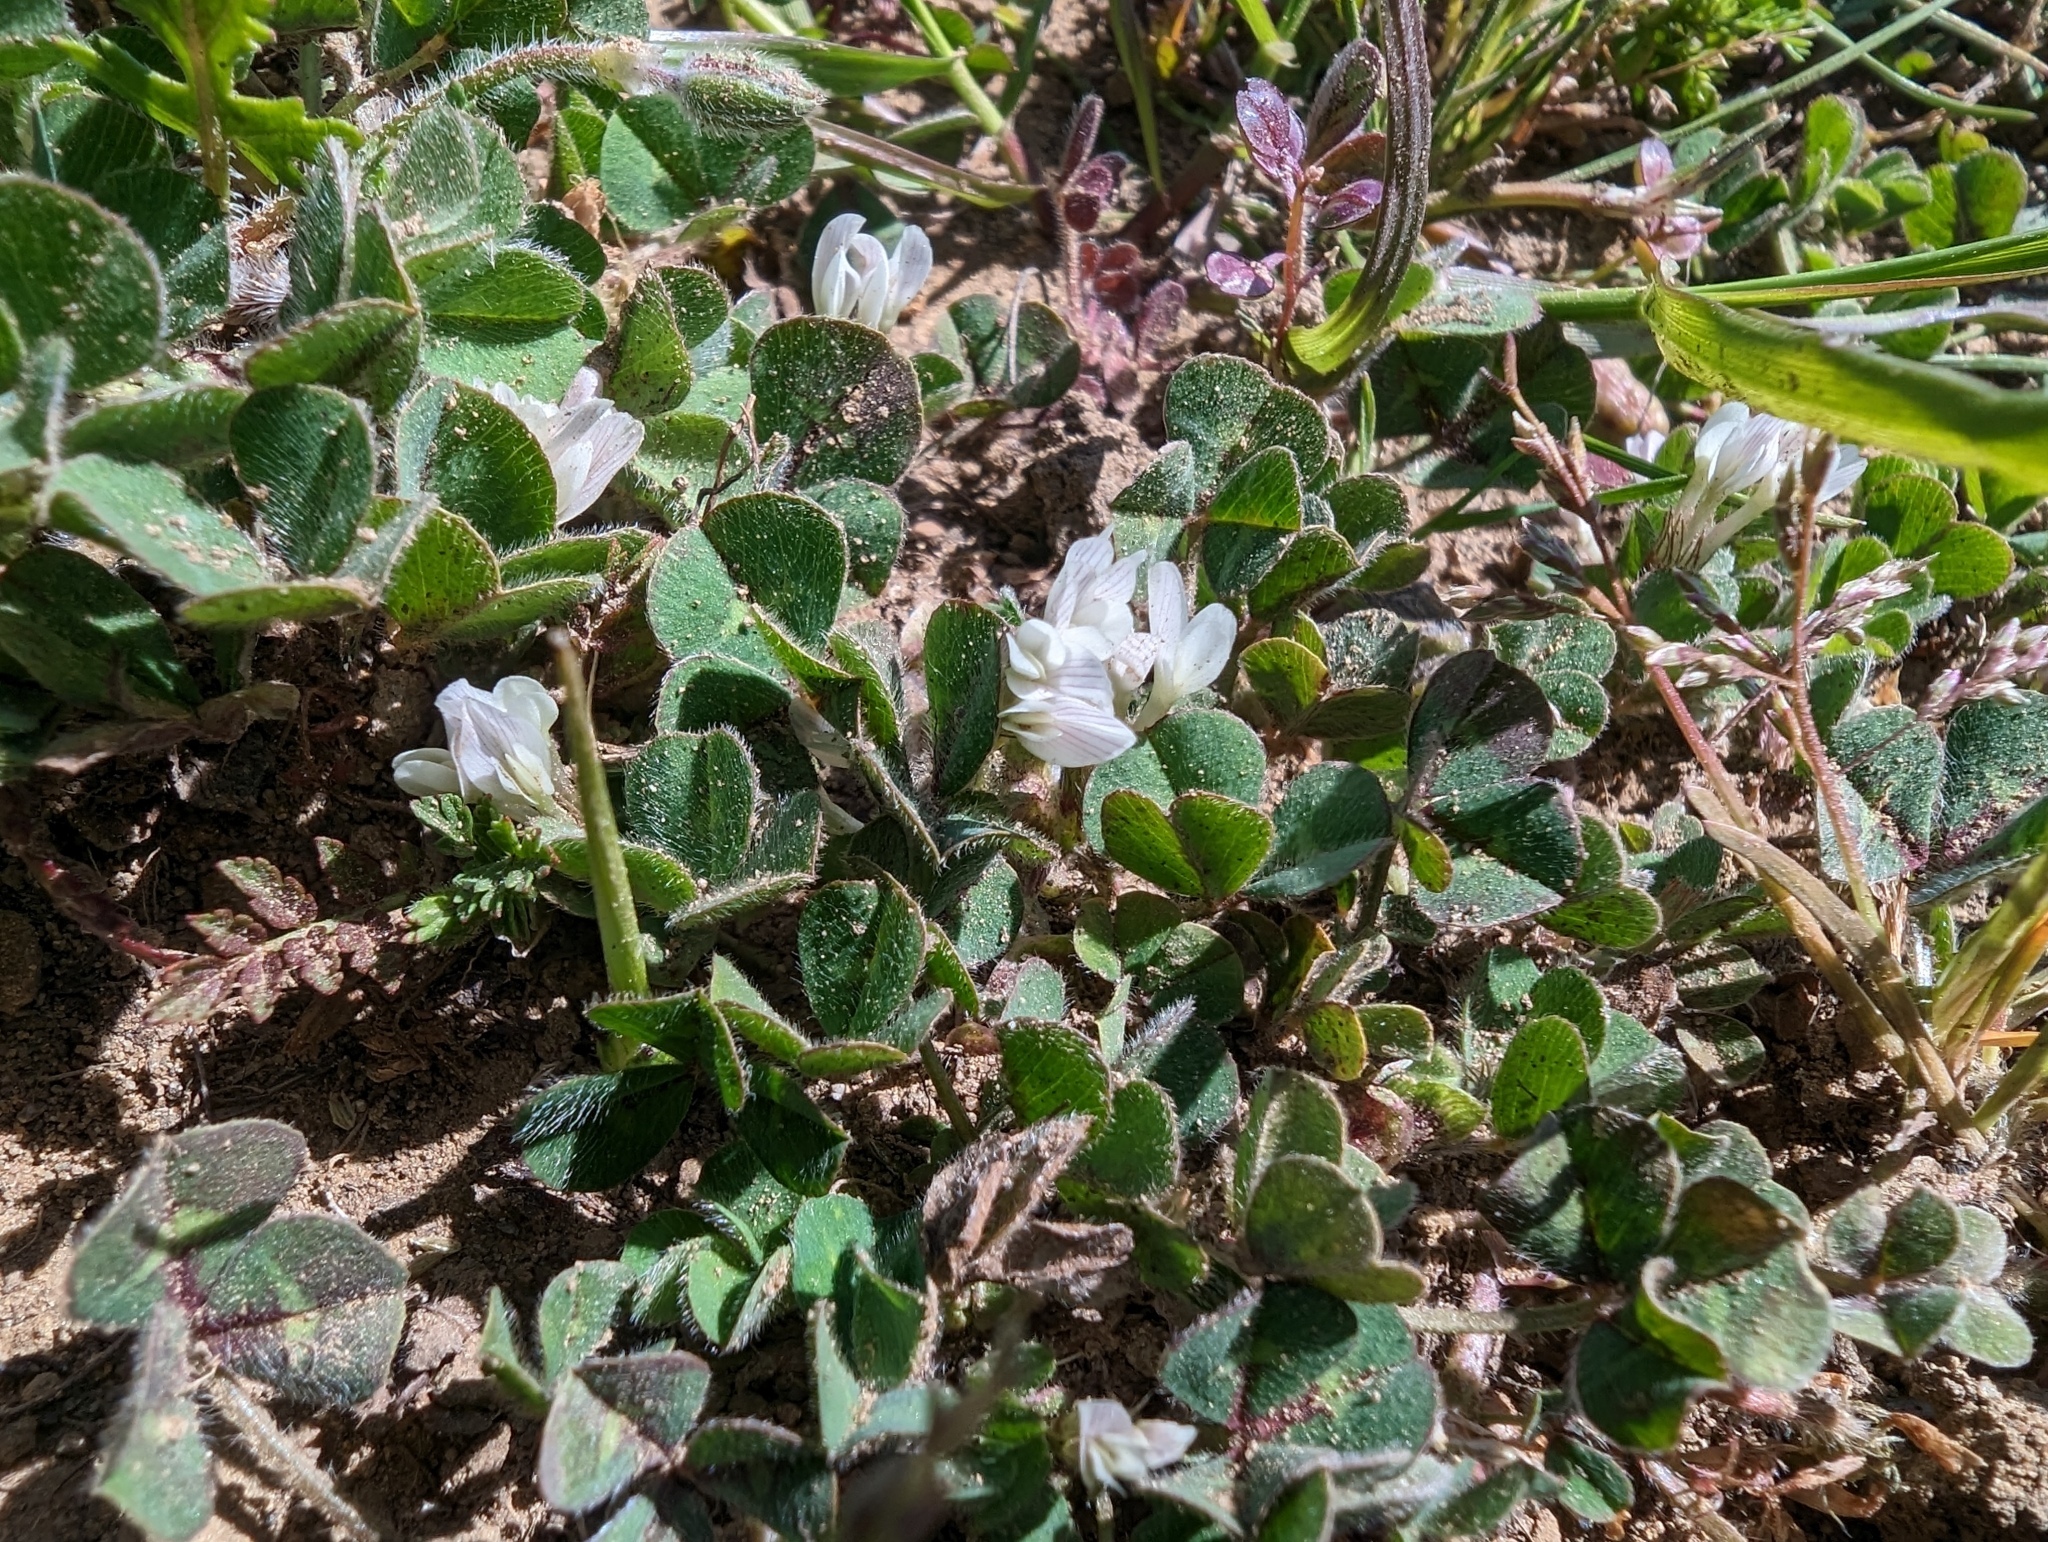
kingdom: Plantae
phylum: Tracheophyta
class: Magnoliopsida
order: Fabales
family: Fabaceae
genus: Trifolium
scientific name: Trifolium subterraneum
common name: Subterranean clover
